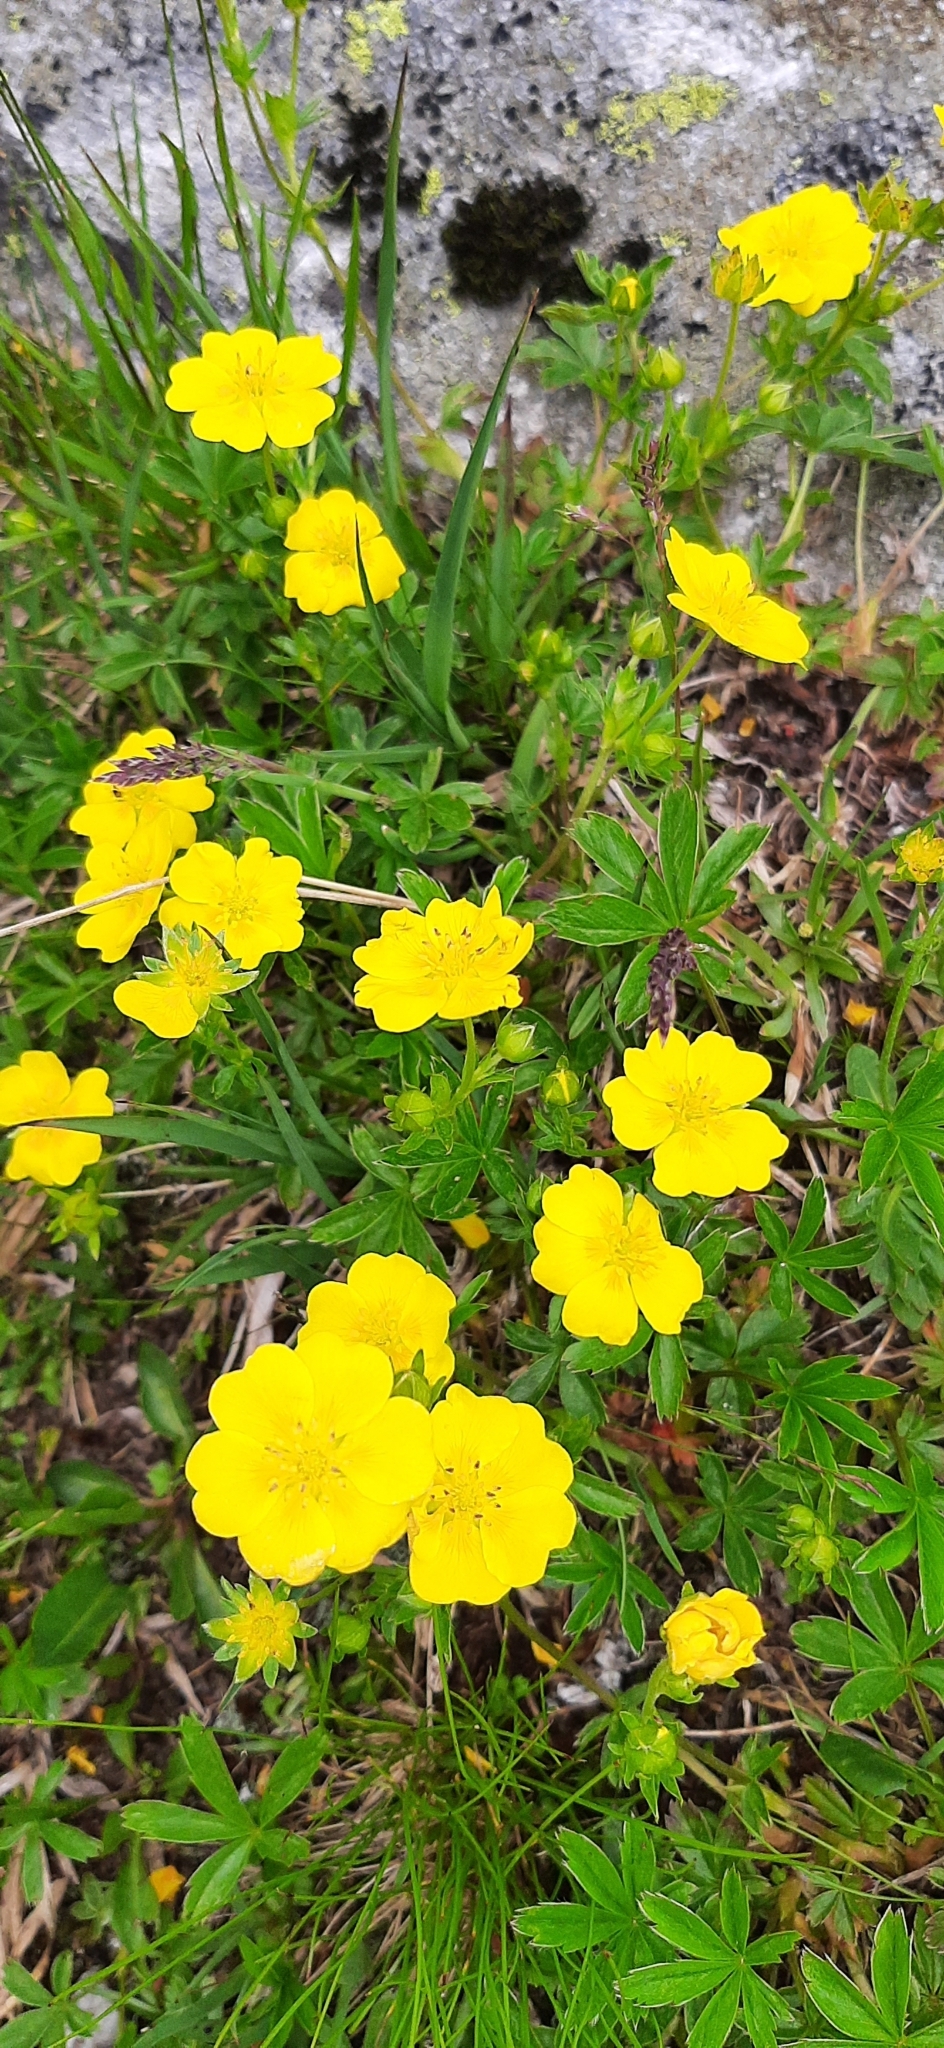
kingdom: Plantae
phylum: Tracheophyta
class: Magnoliopsida
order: Rosales
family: Rosaceae
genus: Potentilla
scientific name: Potentilla aurea
